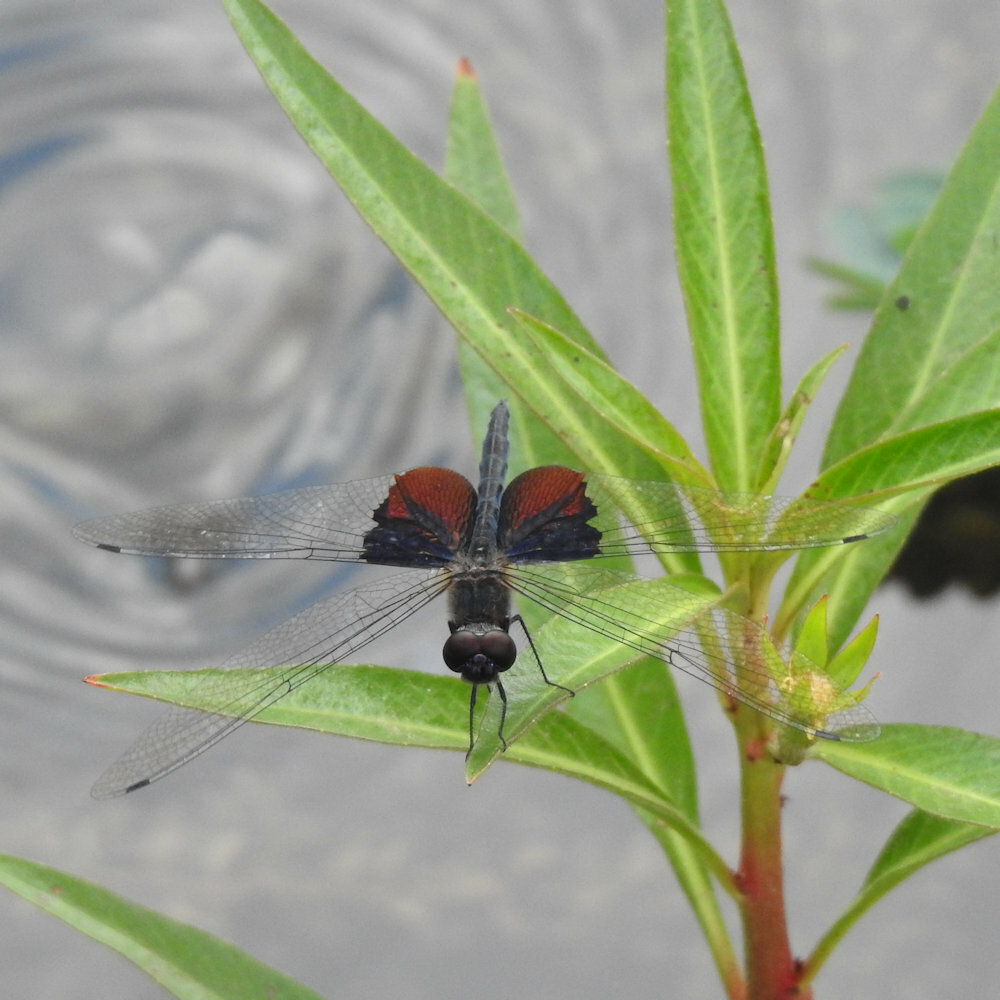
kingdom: Animalia
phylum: Arthropoda
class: Insecta
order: Odonata
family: Libellulidae
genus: Rhyothemis
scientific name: Rhyothemis semihyalina
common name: Phantom flutterer
